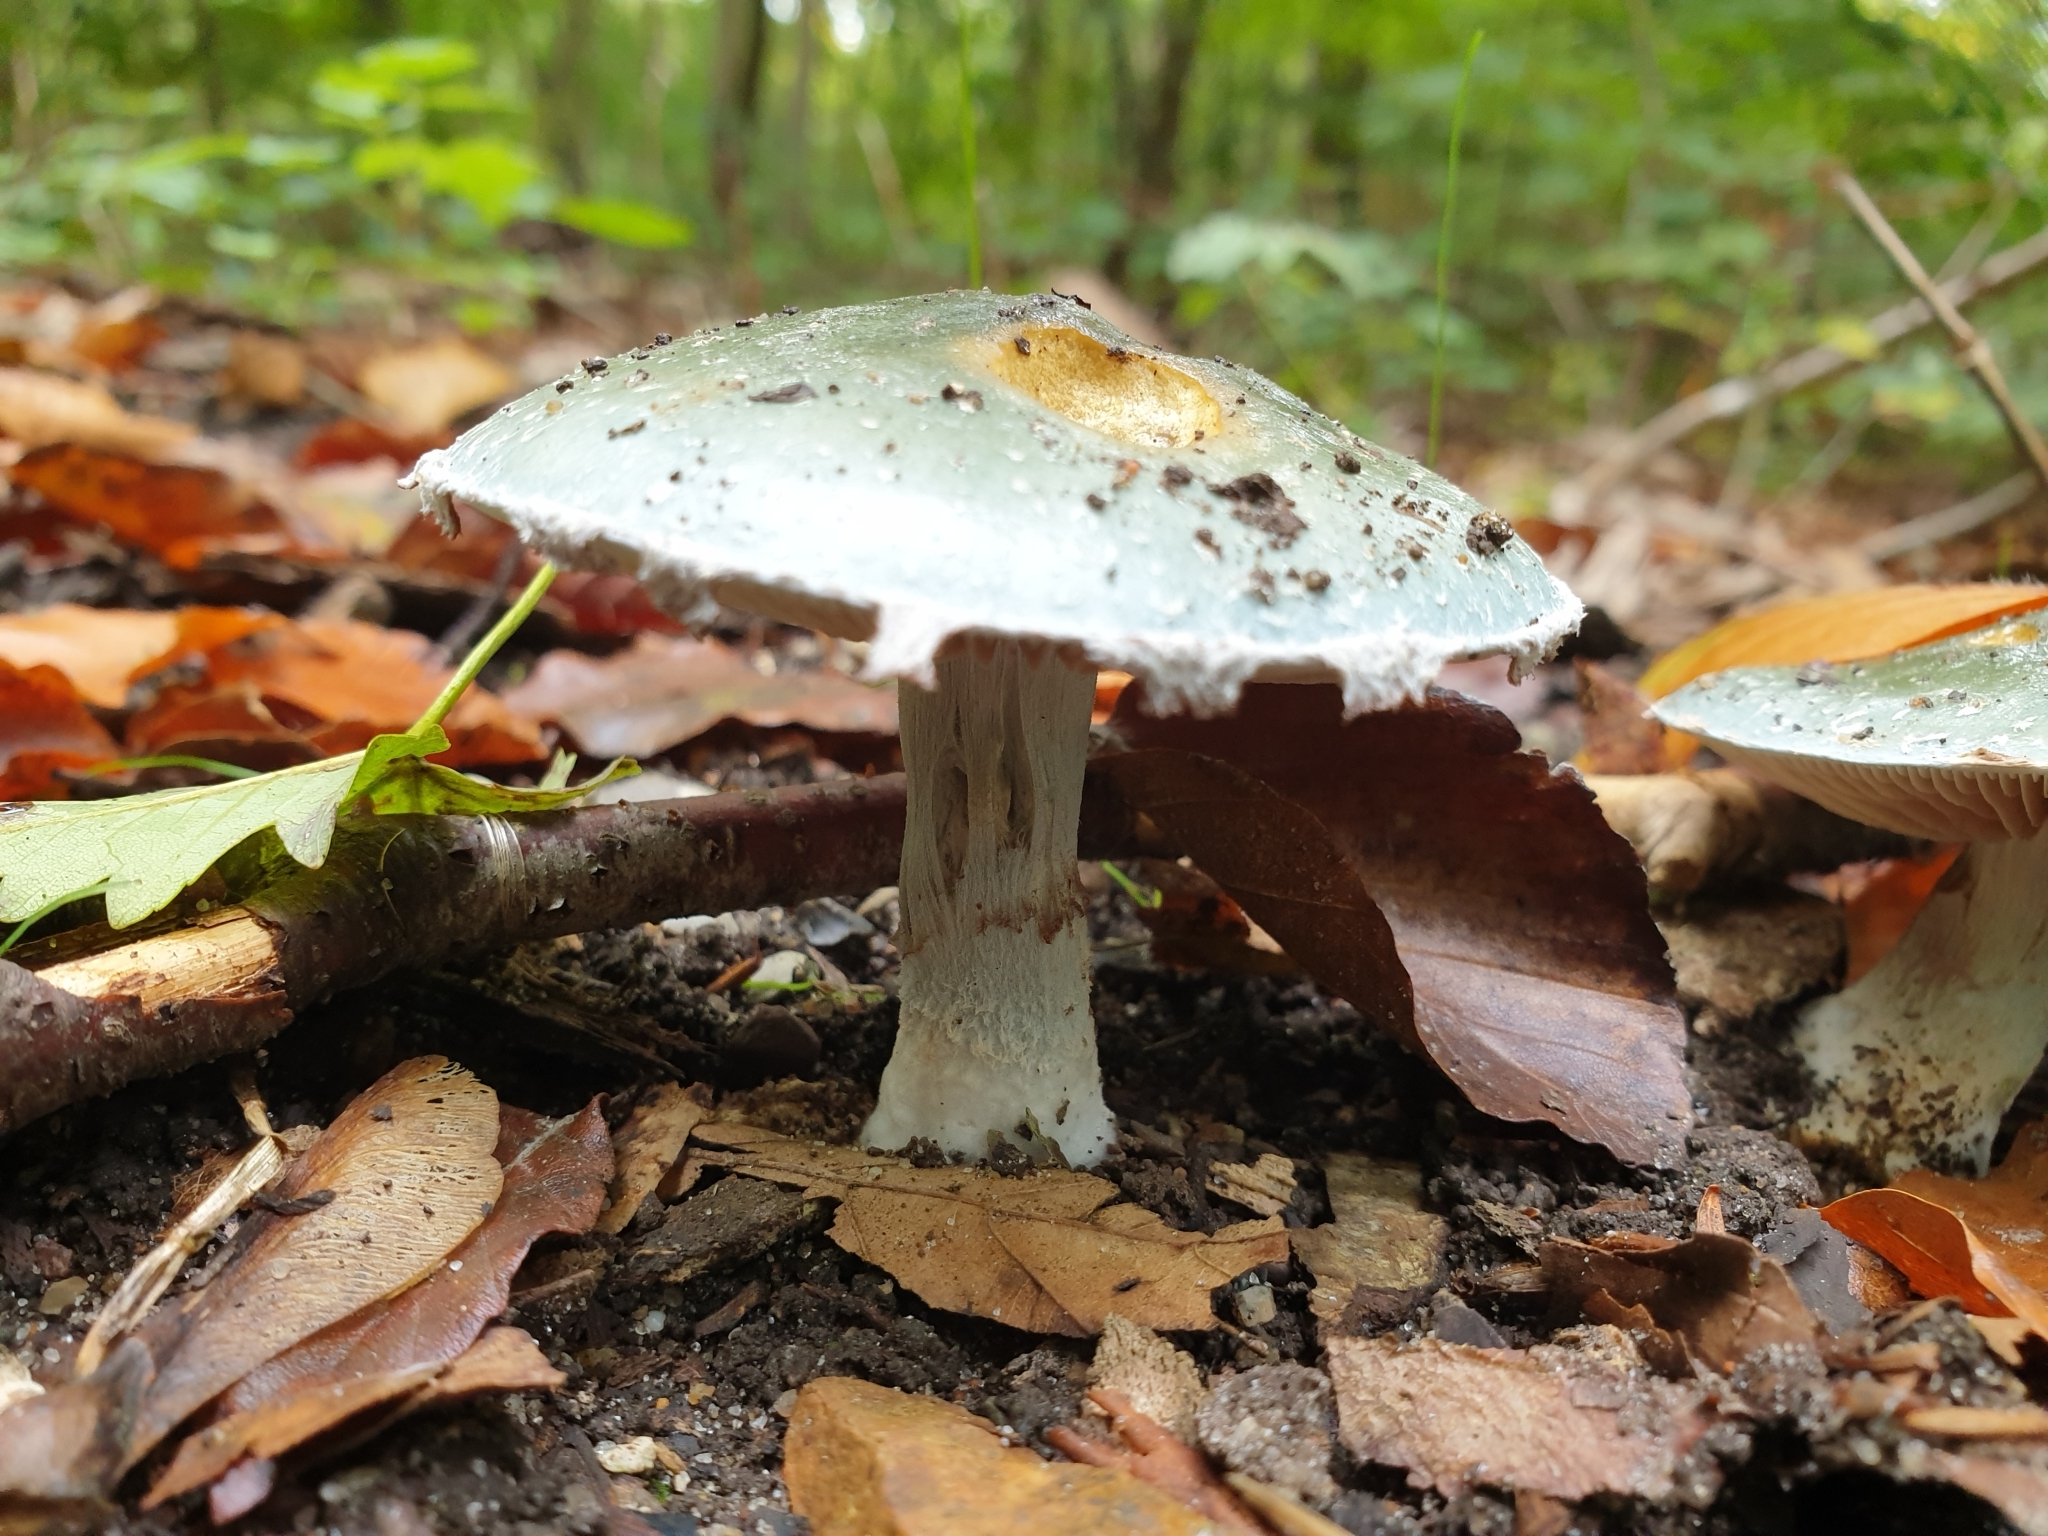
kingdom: Fungi
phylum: Basidiomycota
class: Agaricomycetes
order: Agaricales
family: Strophariaceae
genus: Stropharia
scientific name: Stropharia aeruginosa
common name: Verdigris roundhead
